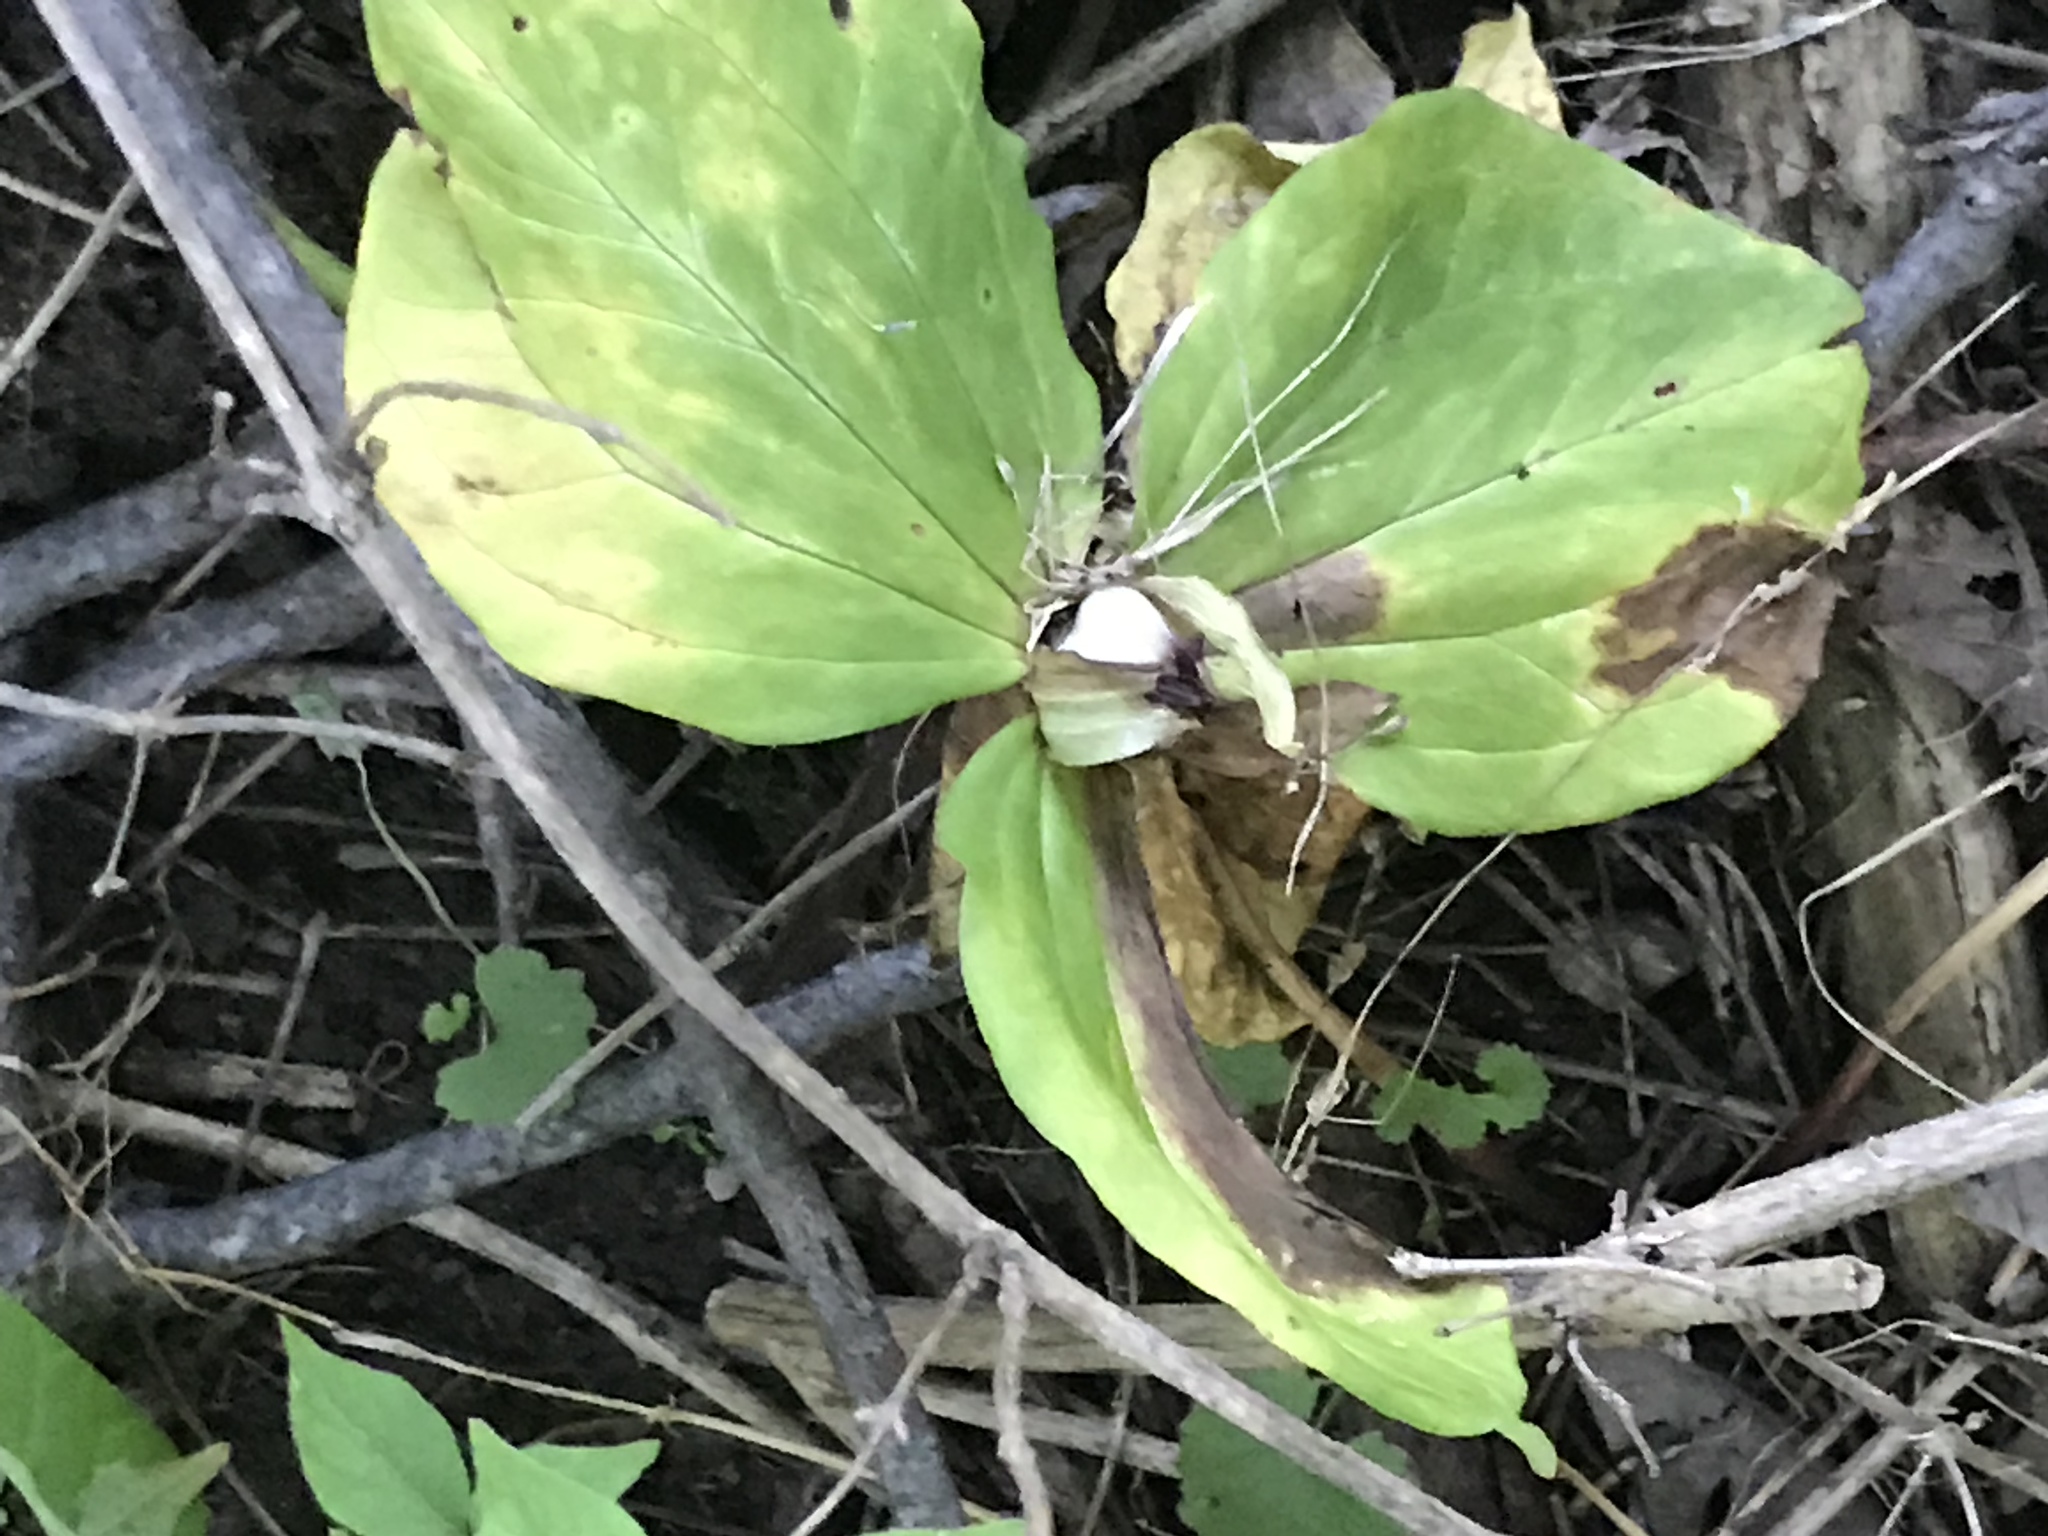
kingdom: Plantae
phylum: Tracheophyta
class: Liliopsida
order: Liliales
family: Melanthiaceae
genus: Trillium
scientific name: Trillium sessile
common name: Sessile trillium
